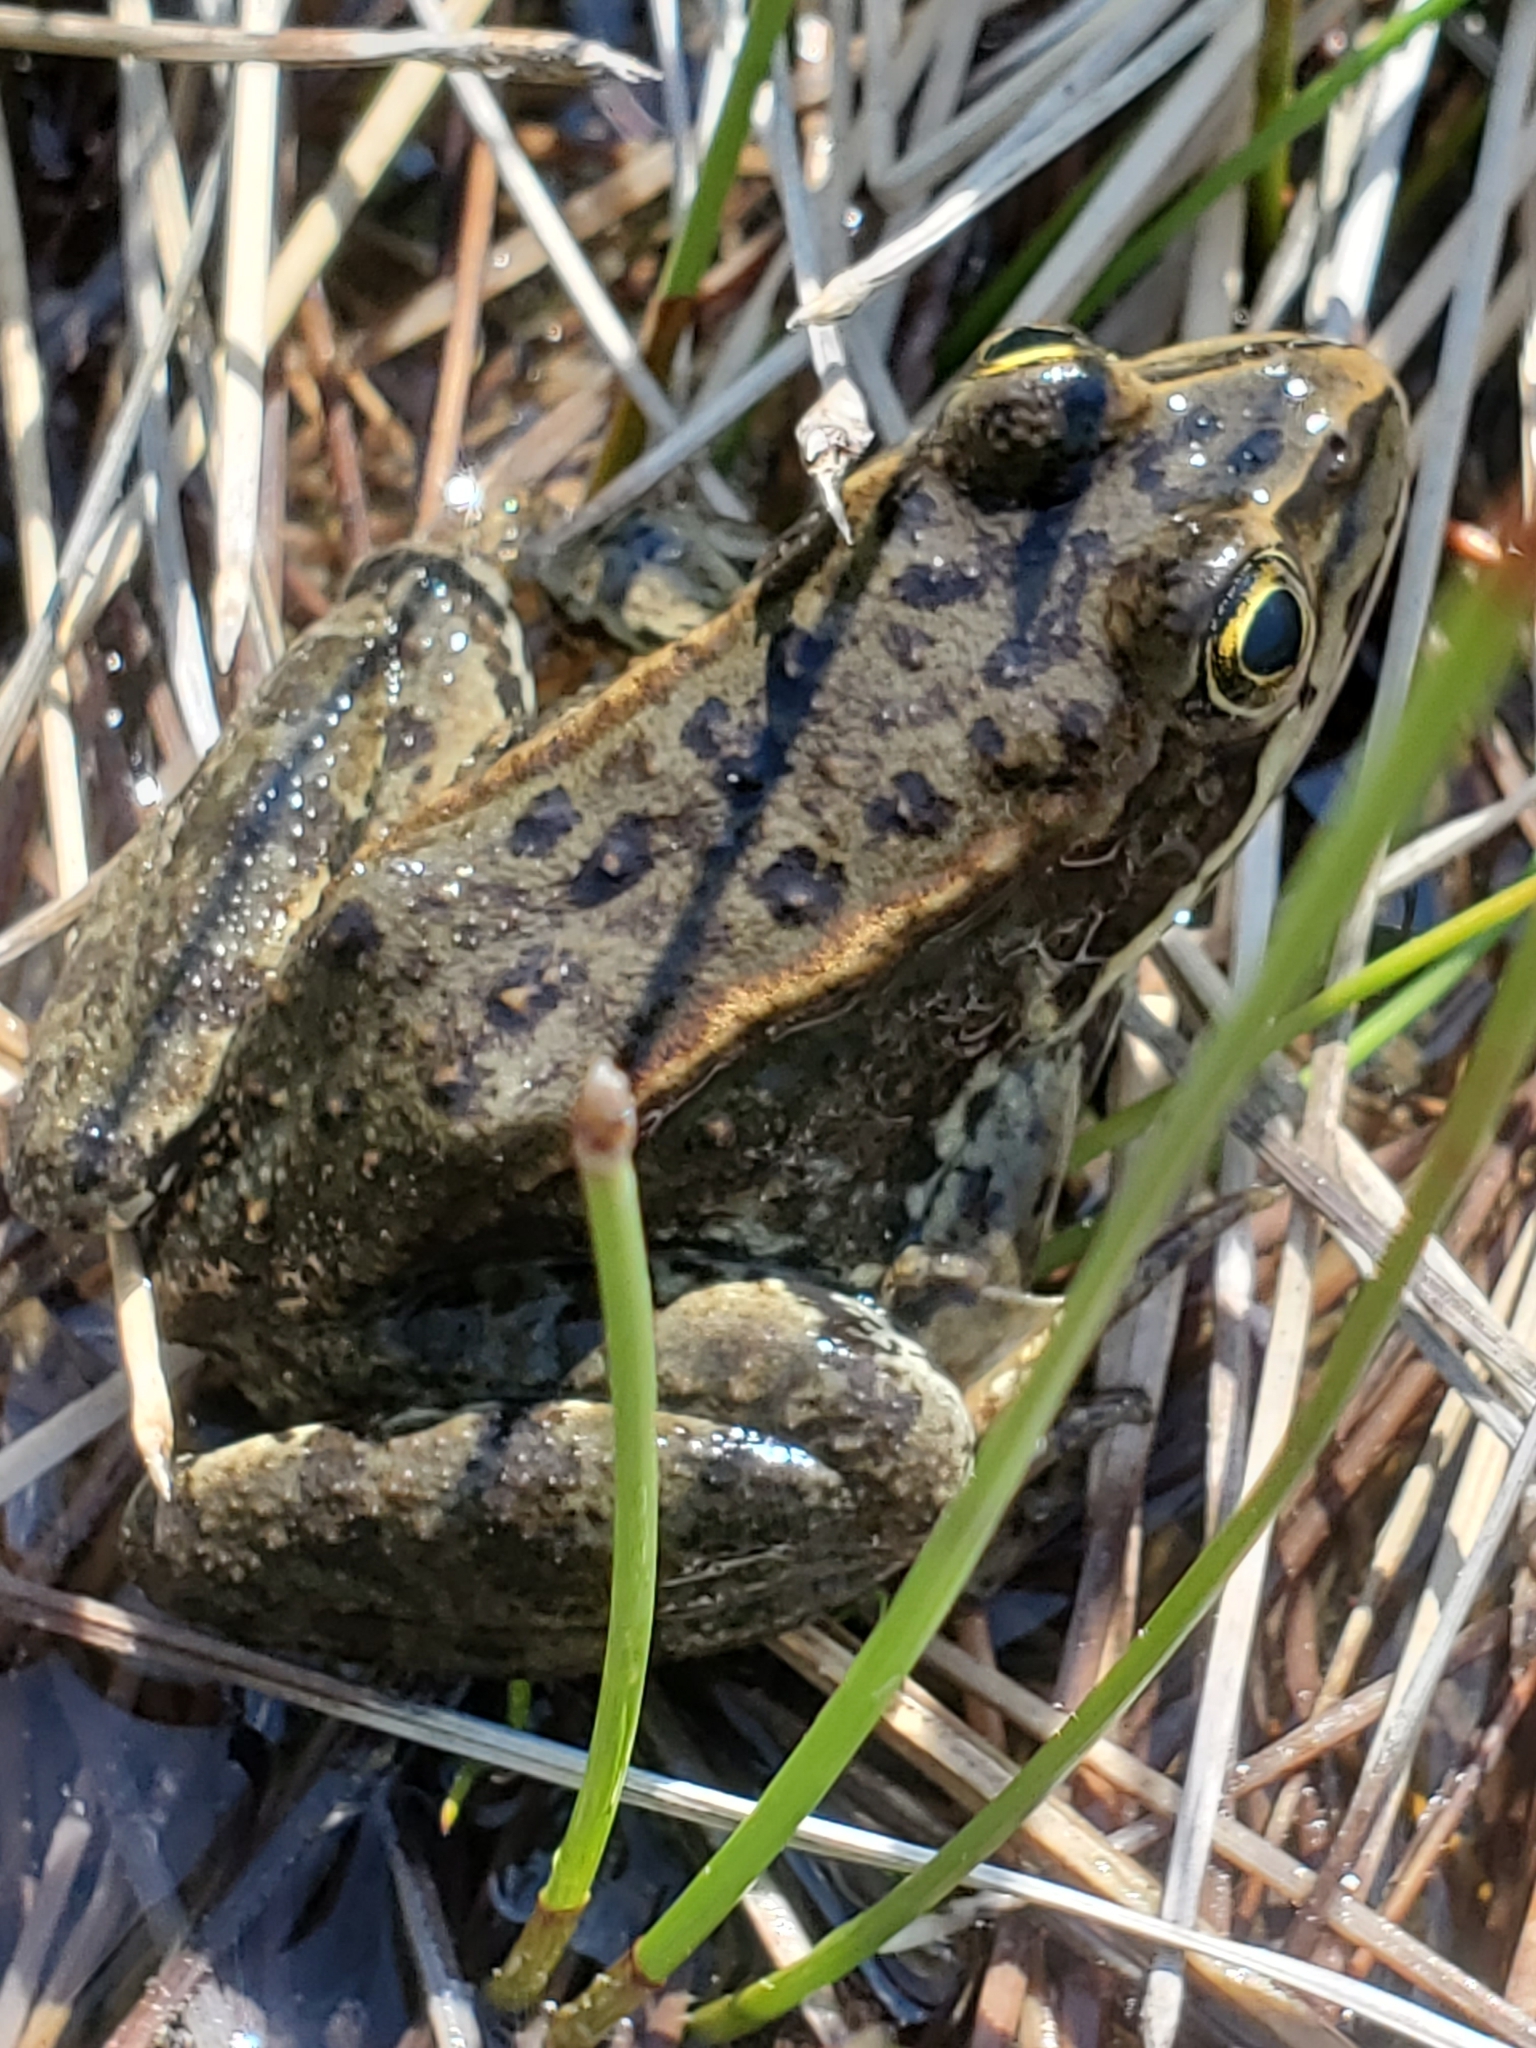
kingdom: Animalia
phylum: Chordata
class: Amphibia
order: Anura
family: Ranidae
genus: Rana
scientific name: Rana luteiventris
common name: Columbia spotted frog
